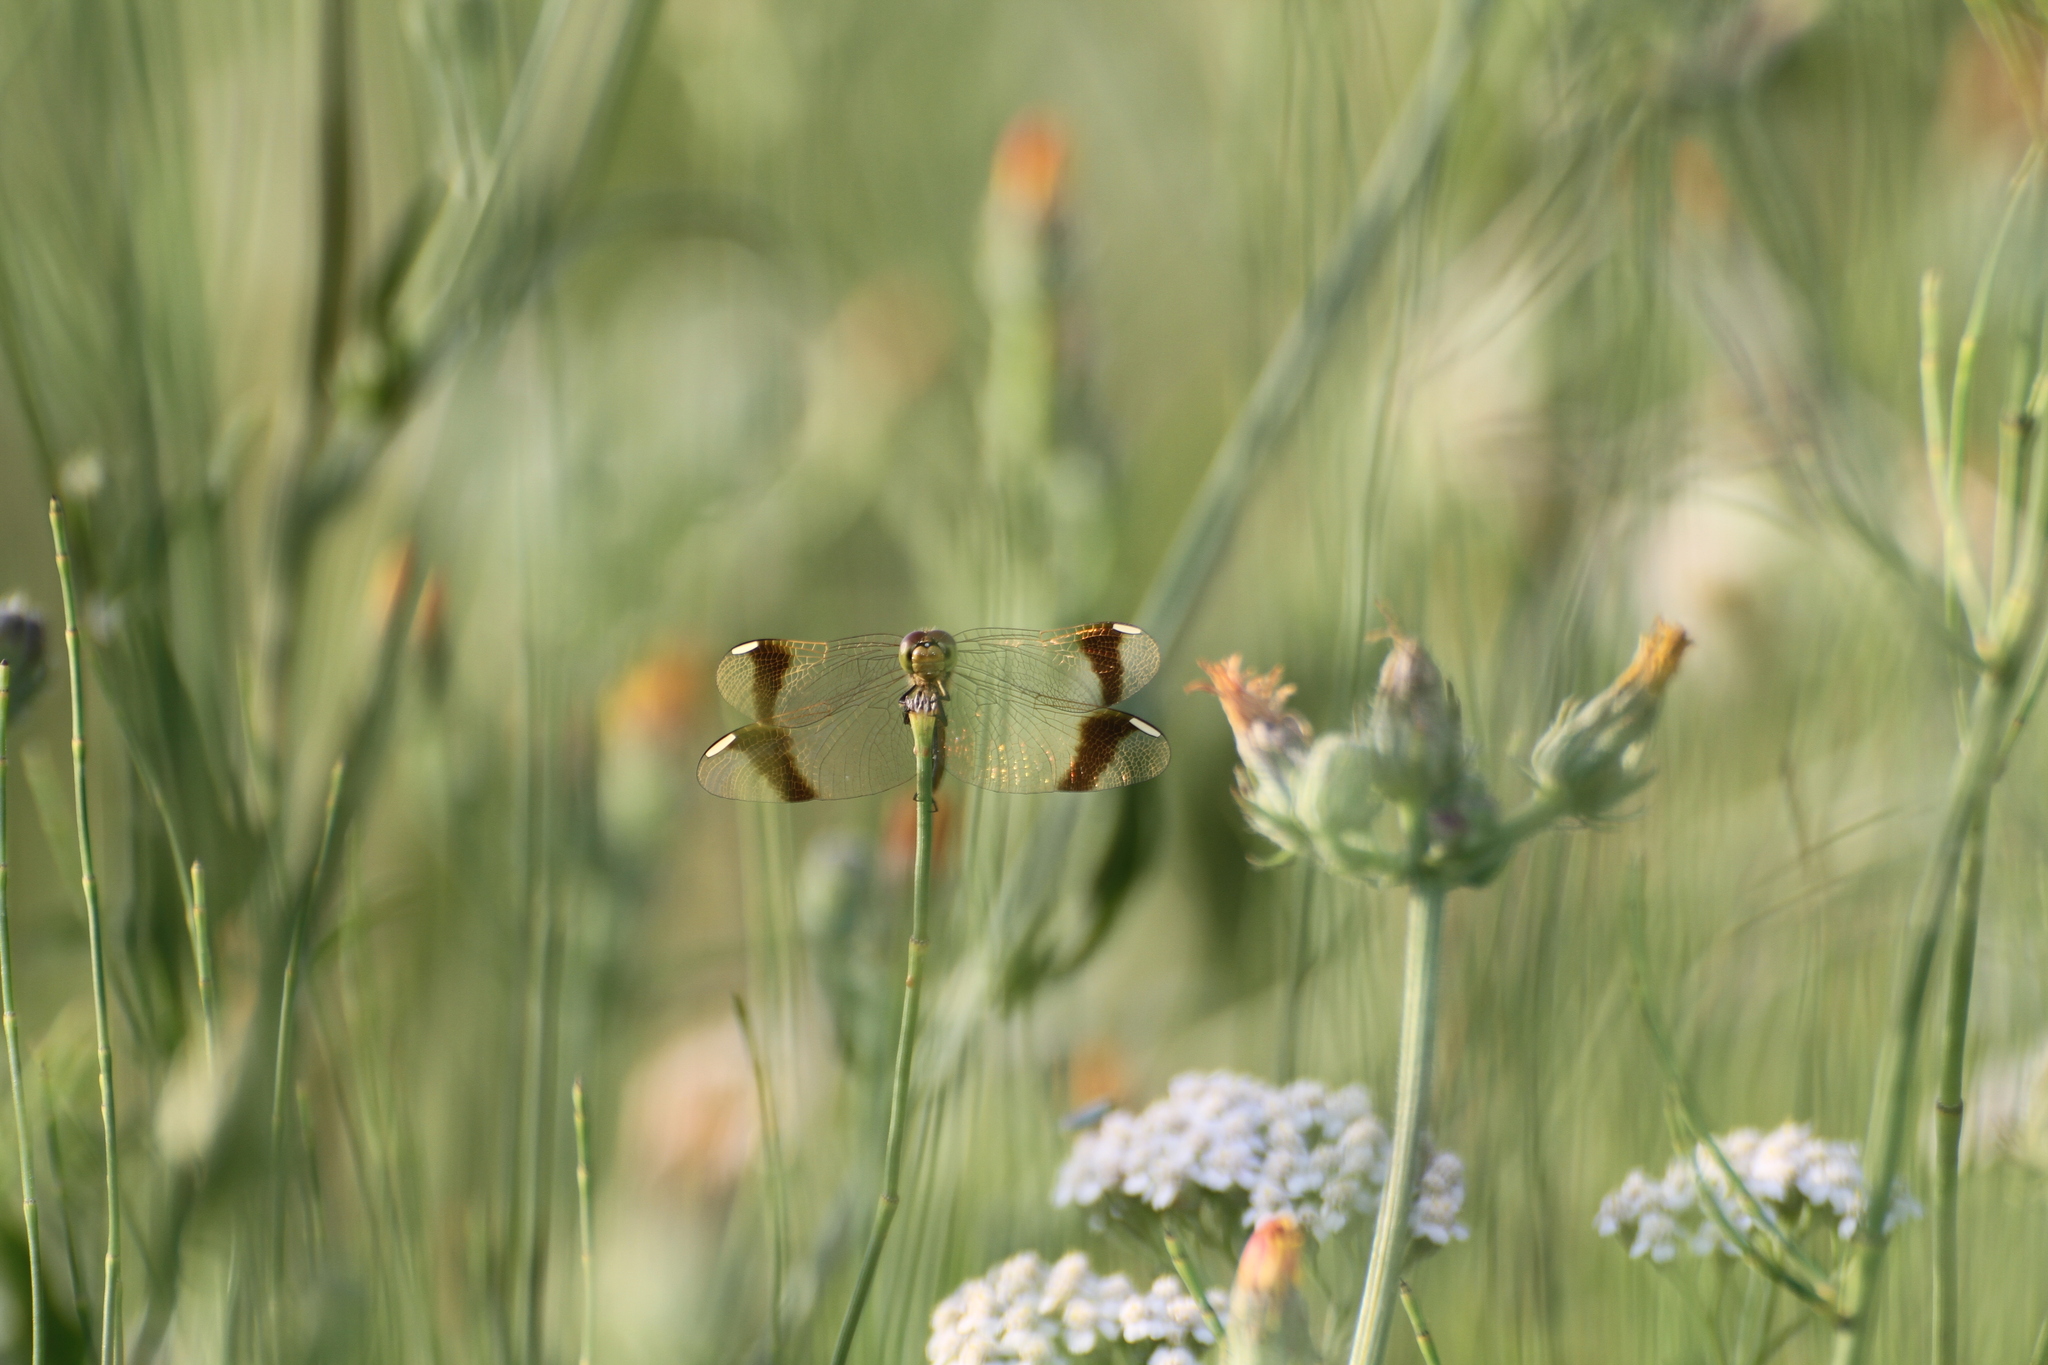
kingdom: Animalia
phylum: Arthropoda
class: Insecta
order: Odonata
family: Libellulidae
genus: Sympetrum
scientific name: Sympetrum pedemontanum
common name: Banded darter
